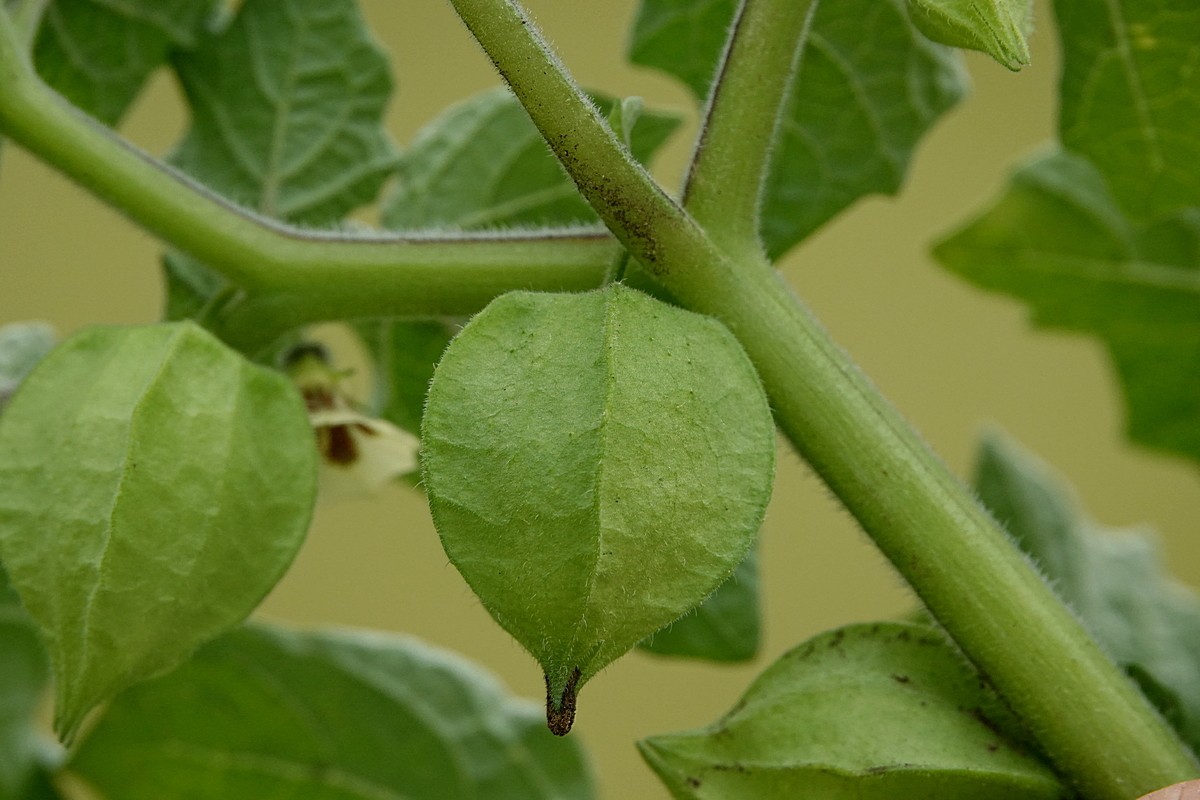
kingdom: Plantae
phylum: Tracheophyta
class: Magnoliopsida
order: Solanales
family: Solanaceae
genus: Physalis
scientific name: Physalis
